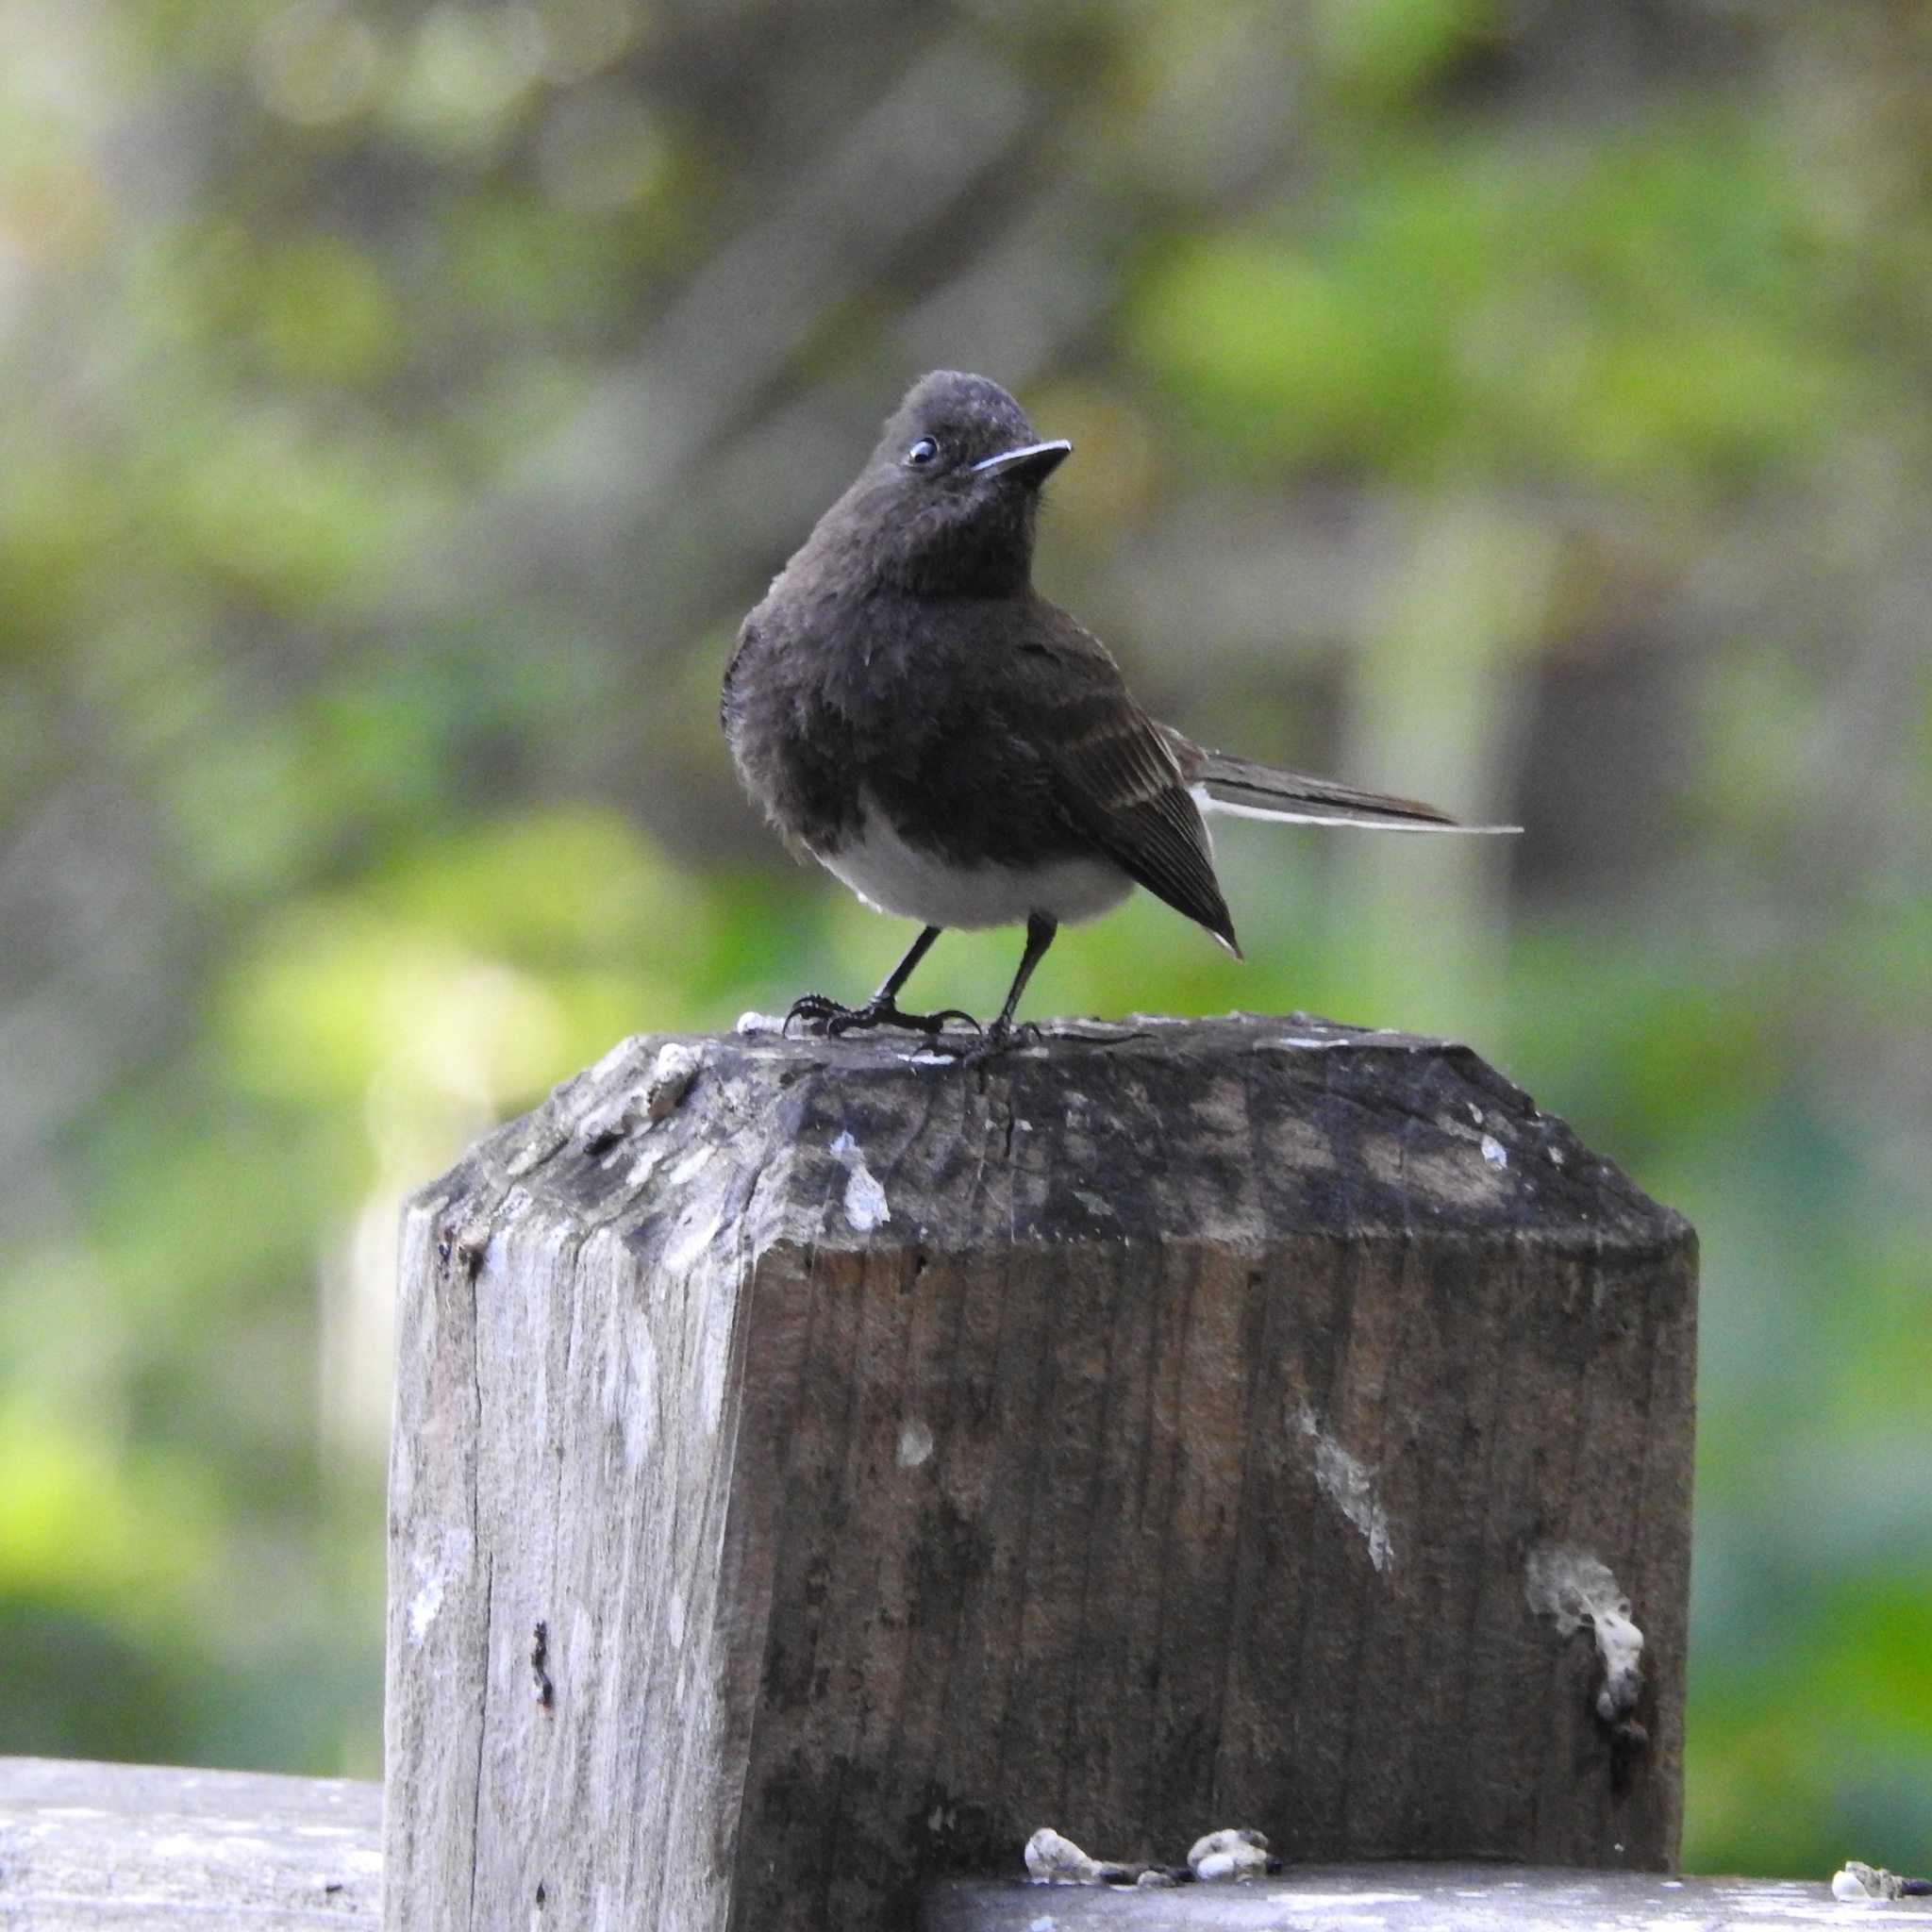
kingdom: Animalia
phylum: Chordata
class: Aves
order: Passeriformes
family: Tyrannidae
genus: Sayornis
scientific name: Sayornis nigricans
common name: Black phoebe
